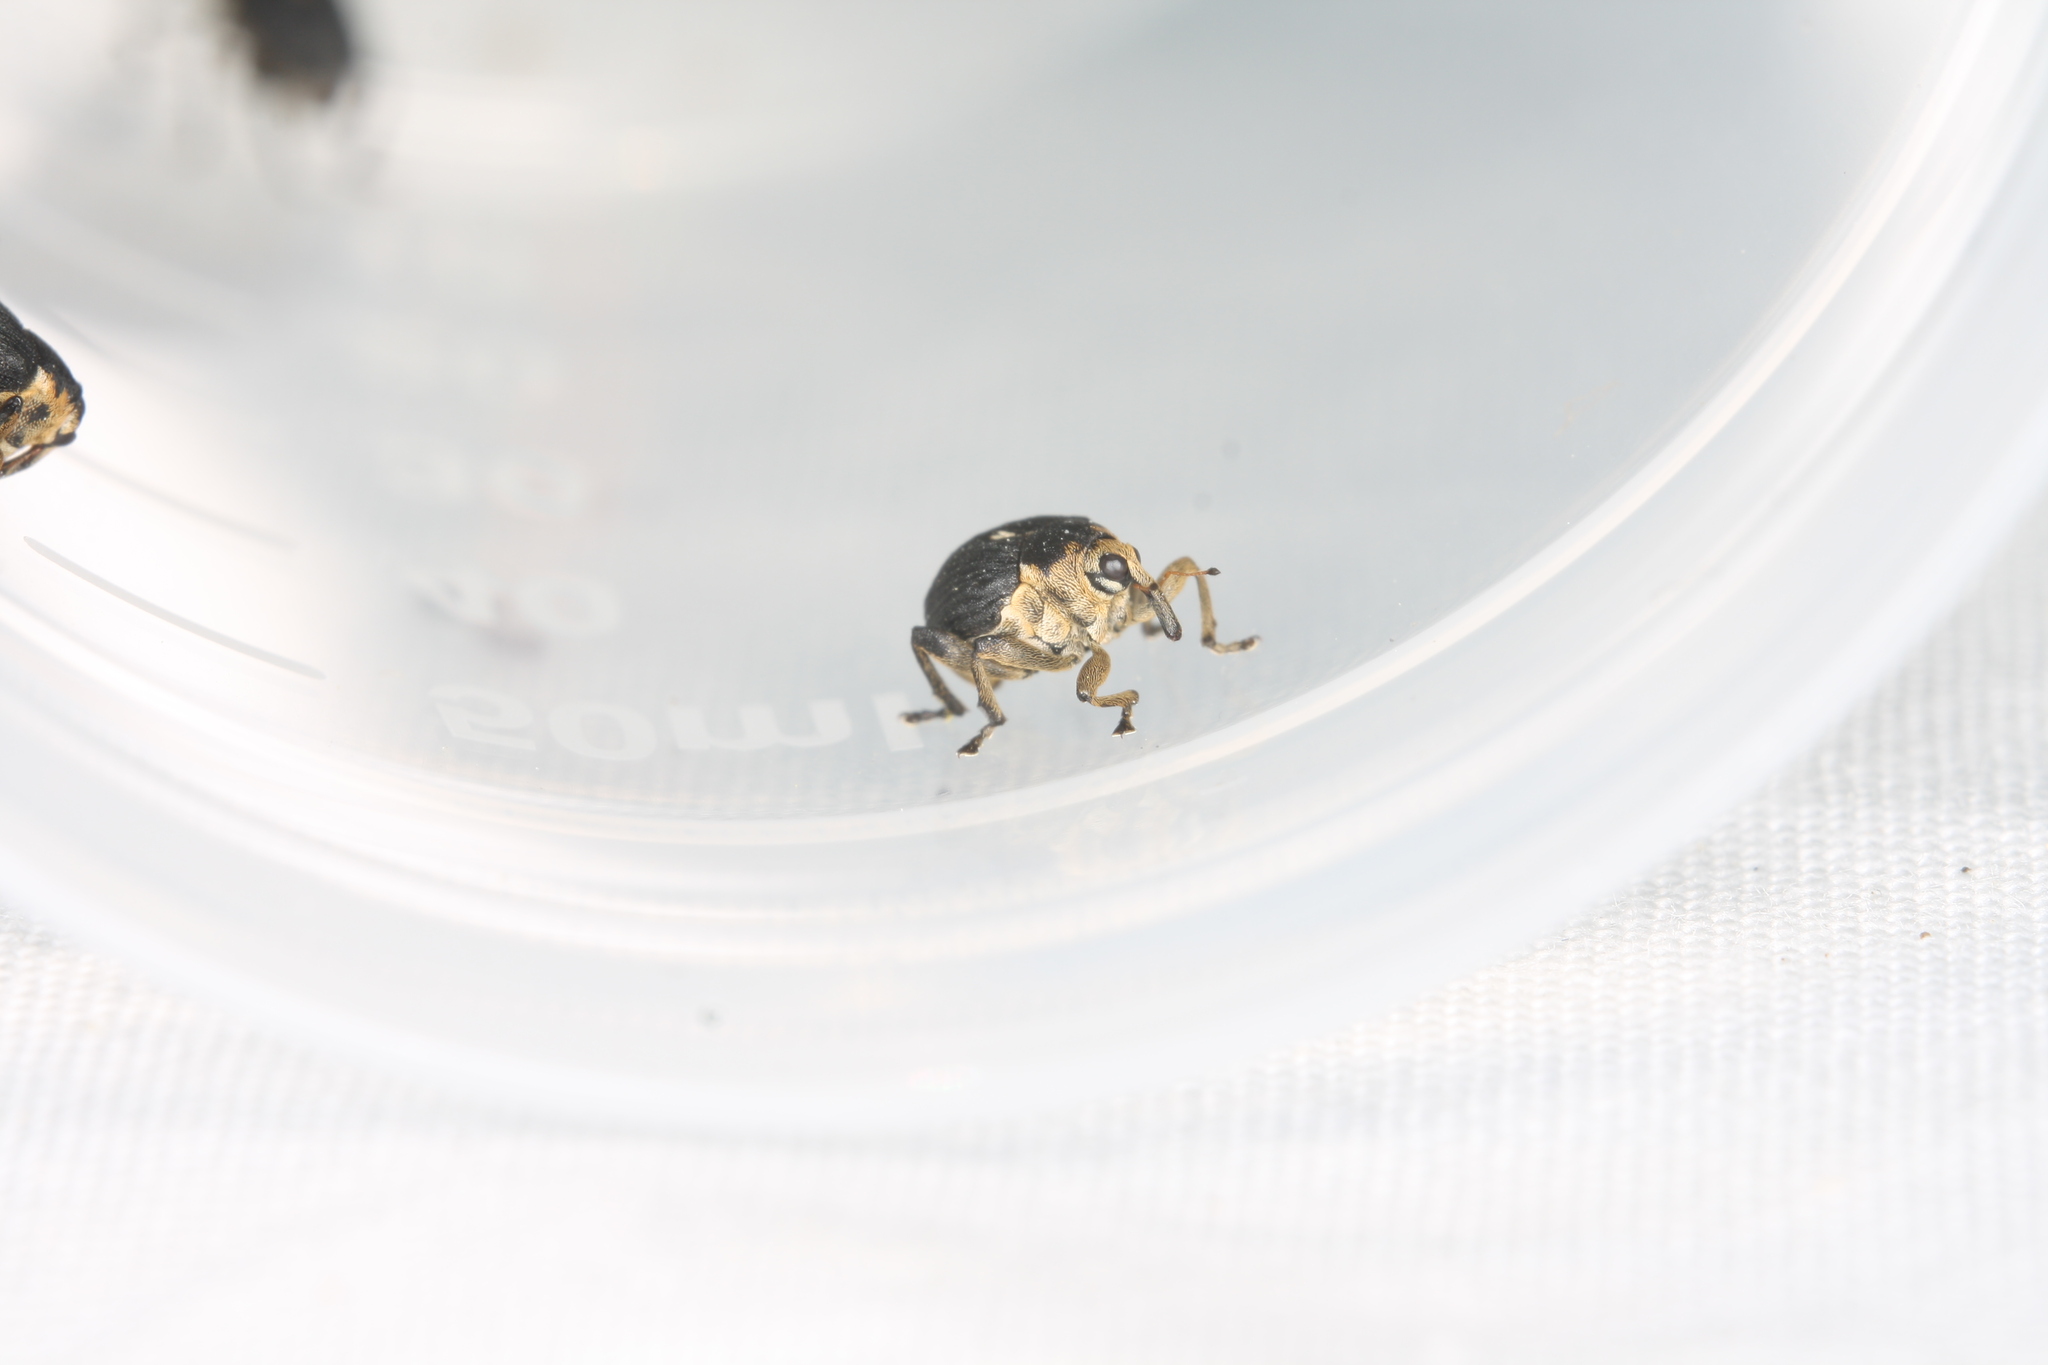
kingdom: Animalia
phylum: Arthropoda
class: Insecta
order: Coleoptera
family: Curculionidae
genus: Mononychus
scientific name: Mononychus punctumalbum
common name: Iris weevil
